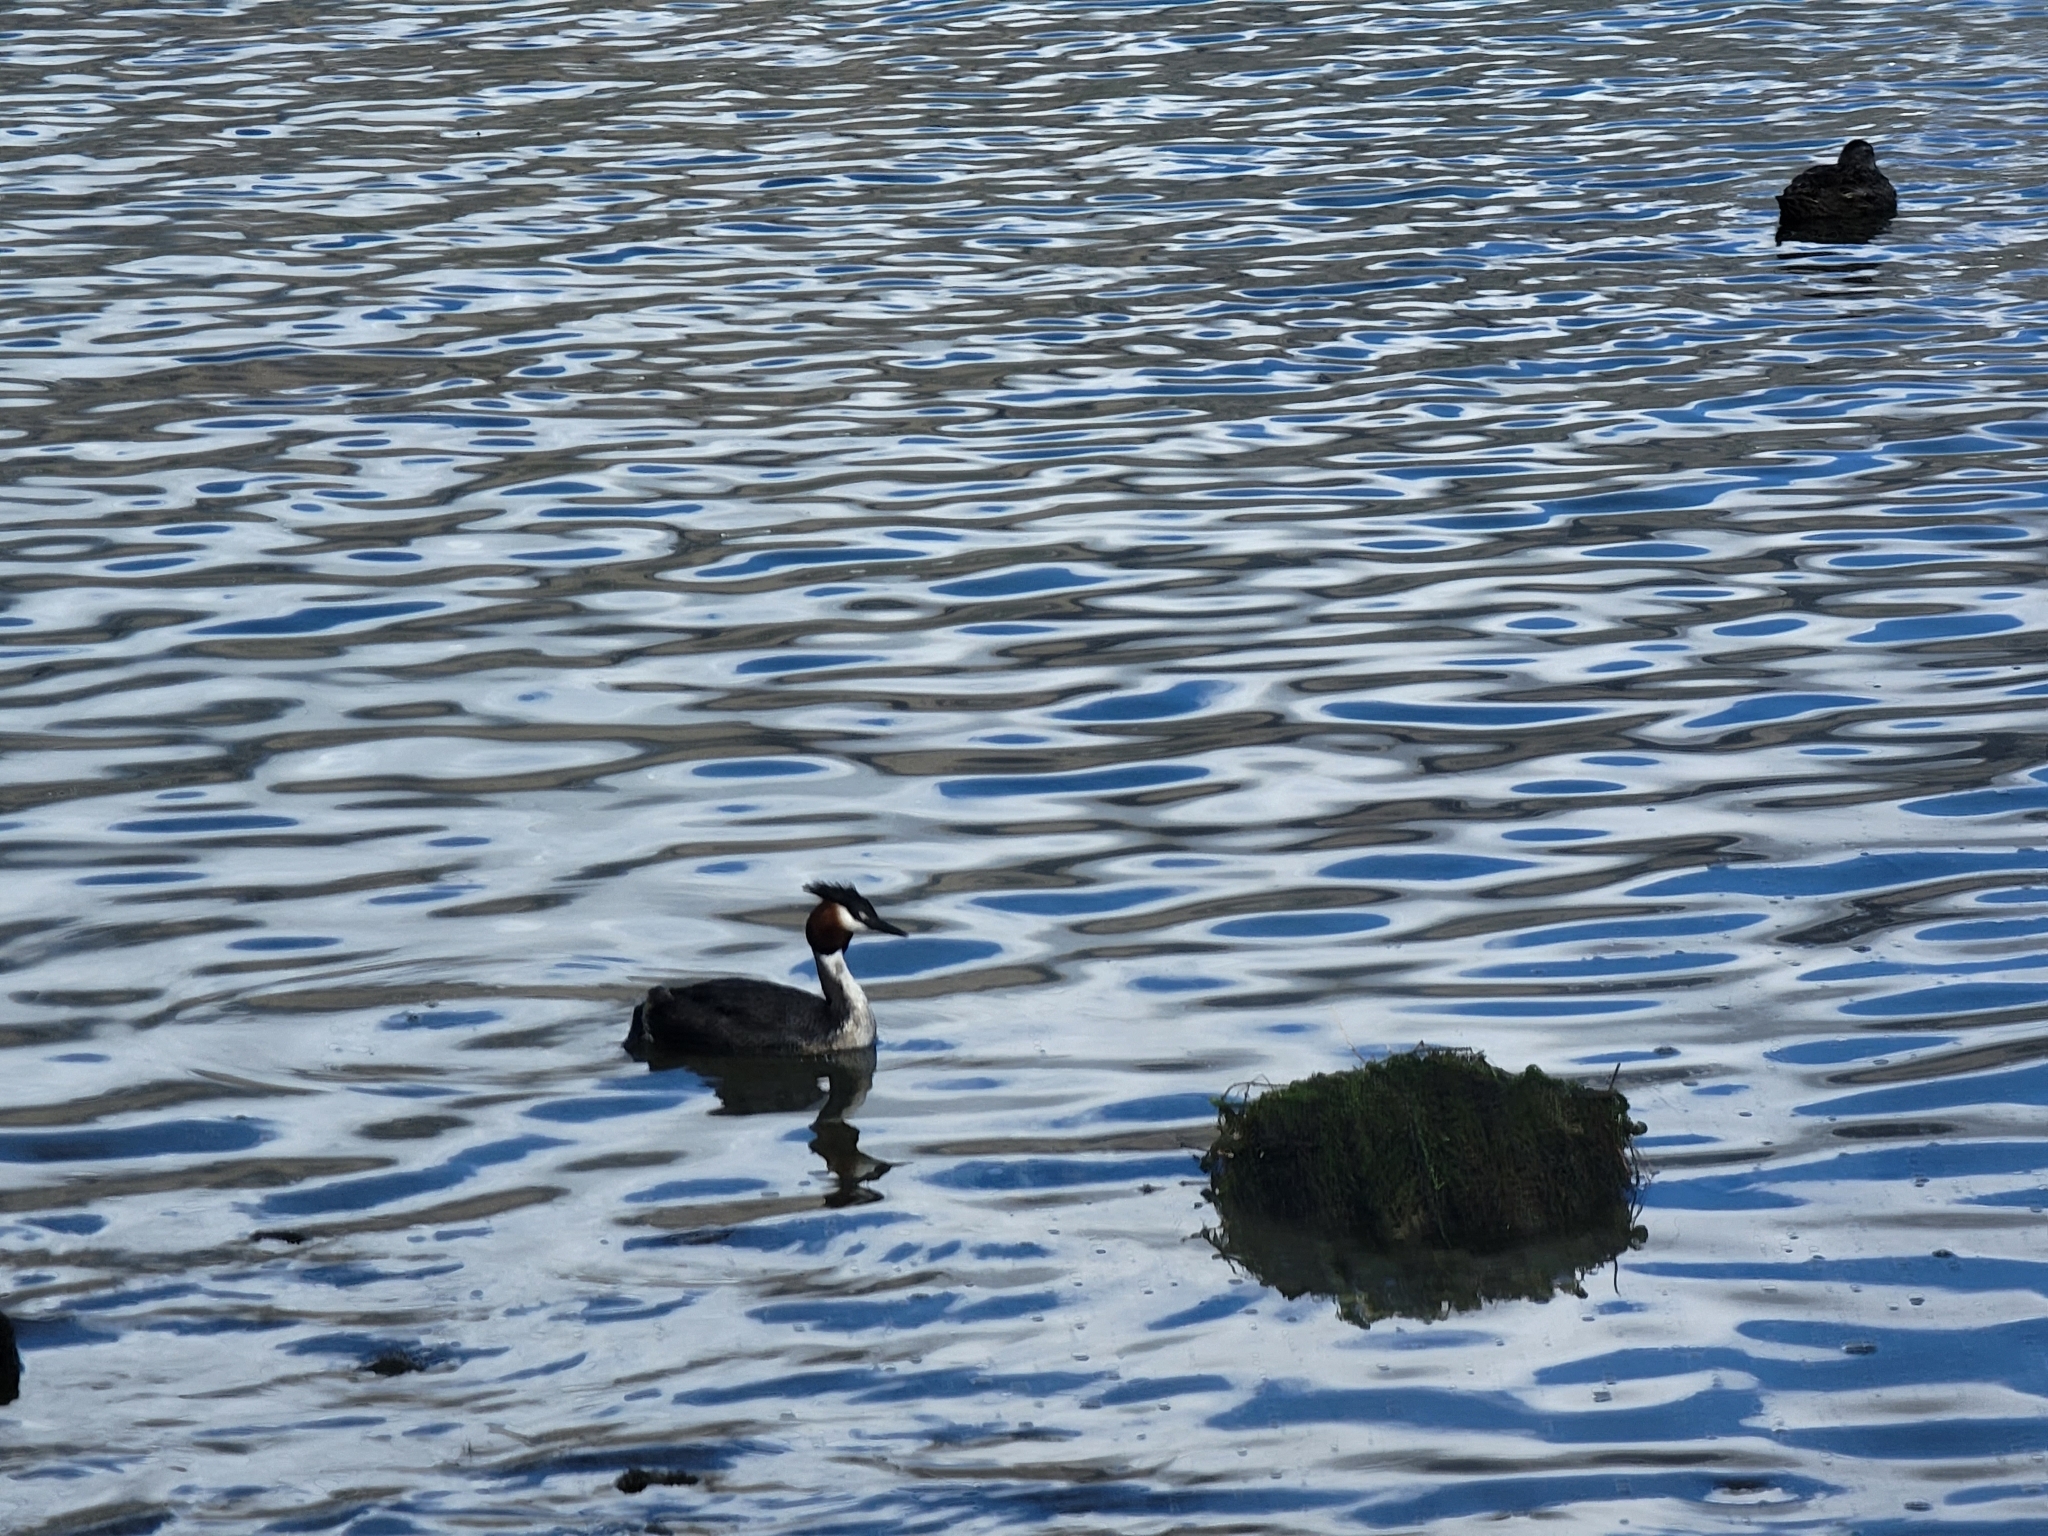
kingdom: Animalia
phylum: Chordata
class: Aves
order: Podicipediformes
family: Podicipedidae
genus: Podiceps
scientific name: Podiceps cristatus
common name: Great crested grebe
